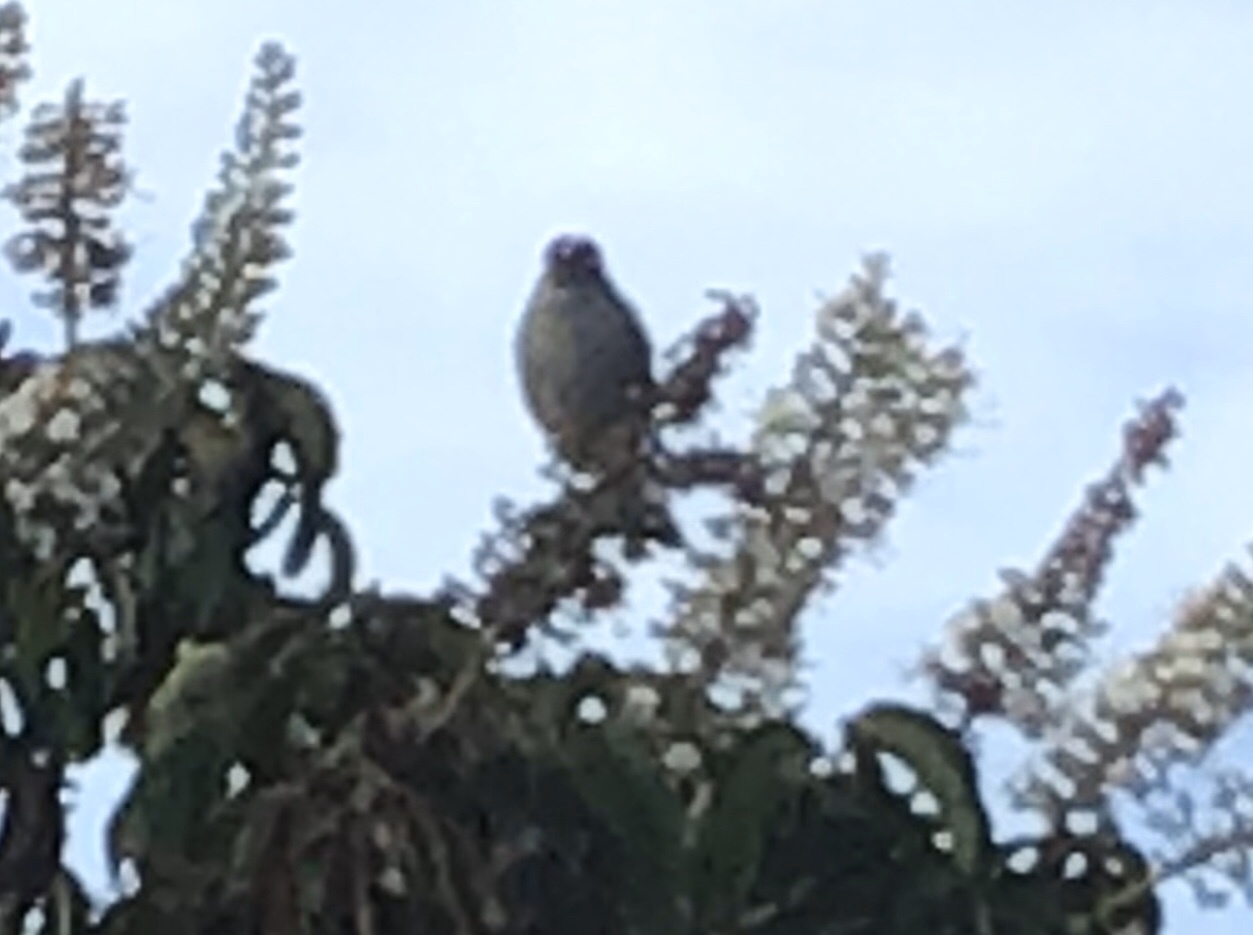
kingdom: Animalia
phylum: Chordata
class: Aves
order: Passeriformes
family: Passerellidae
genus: Zonotrichia
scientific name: Zonotrichia leucophrys
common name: White-crowned sparrow
